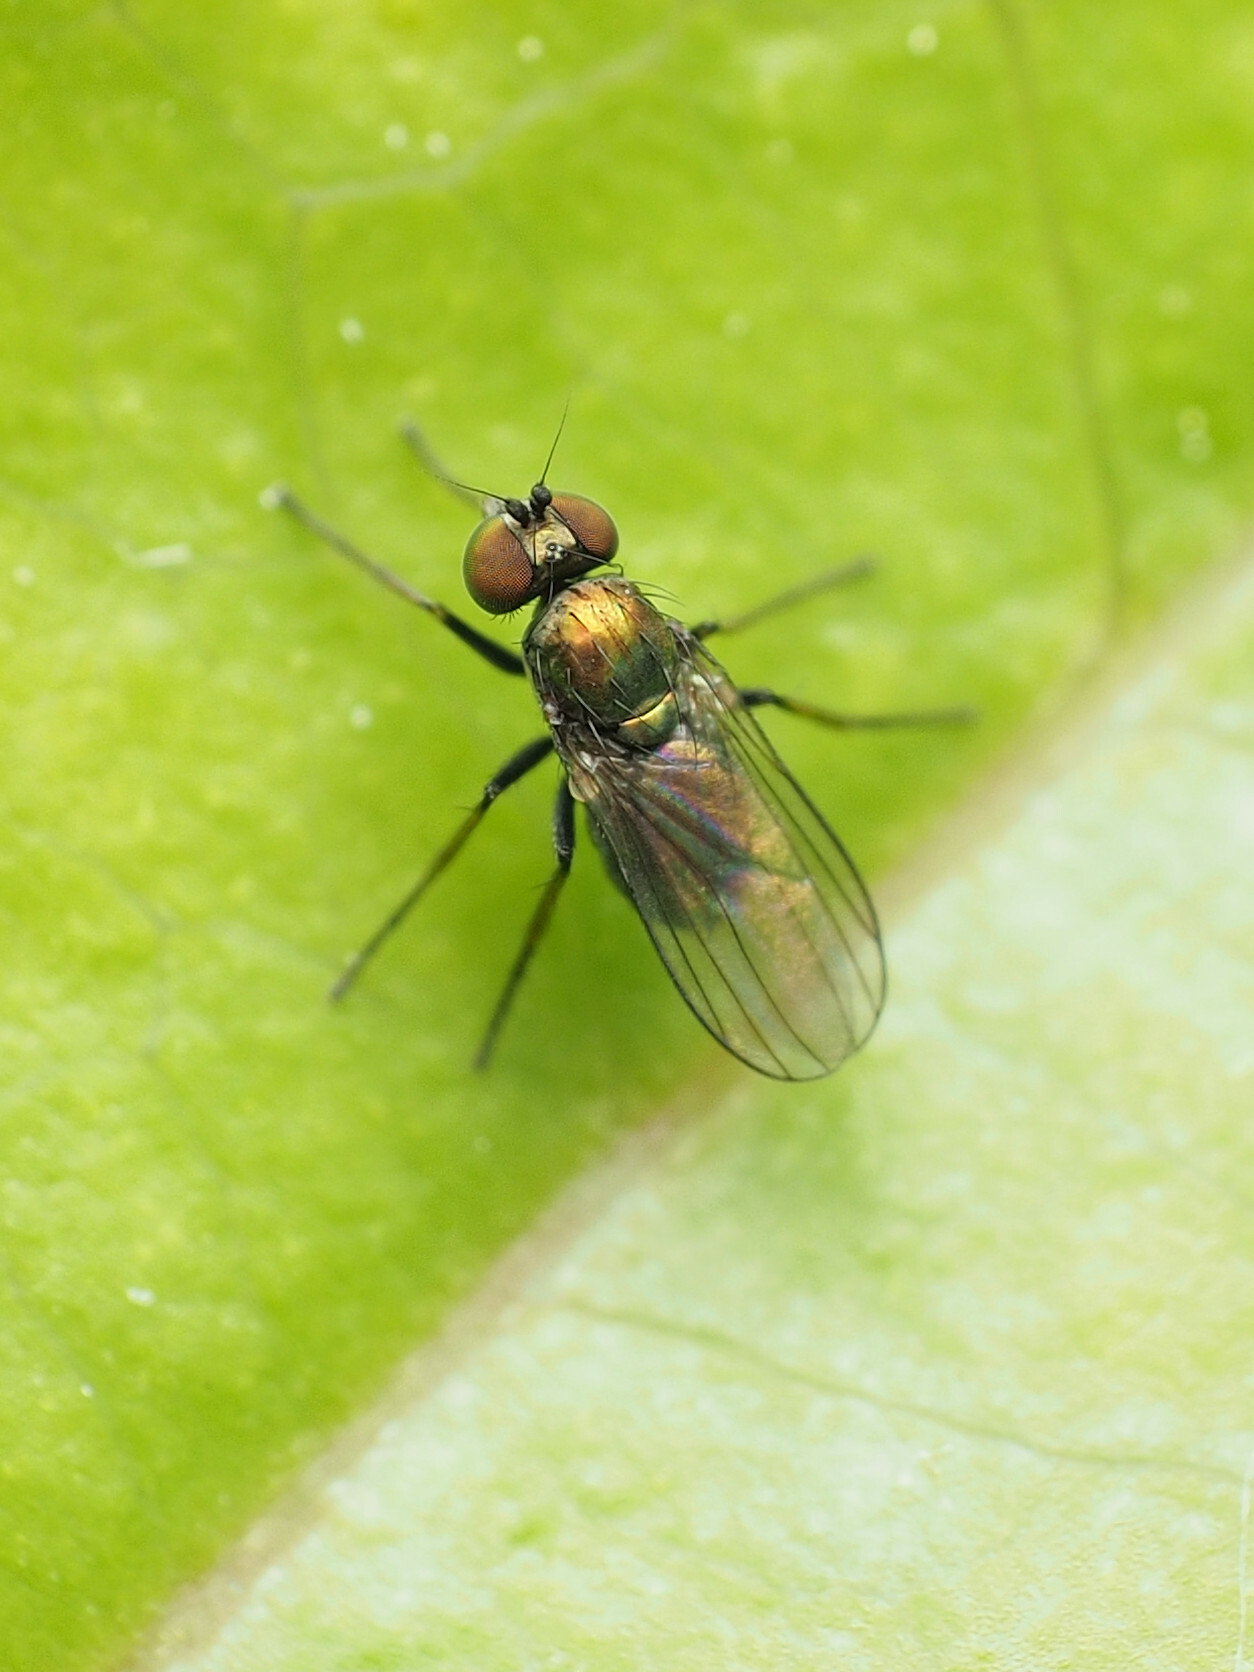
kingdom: Animalia
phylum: Arthropoda
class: Insecta
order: Diptera
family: Dolichopodidae
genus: Chrysotus
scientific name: Chrysotus subcostatus
